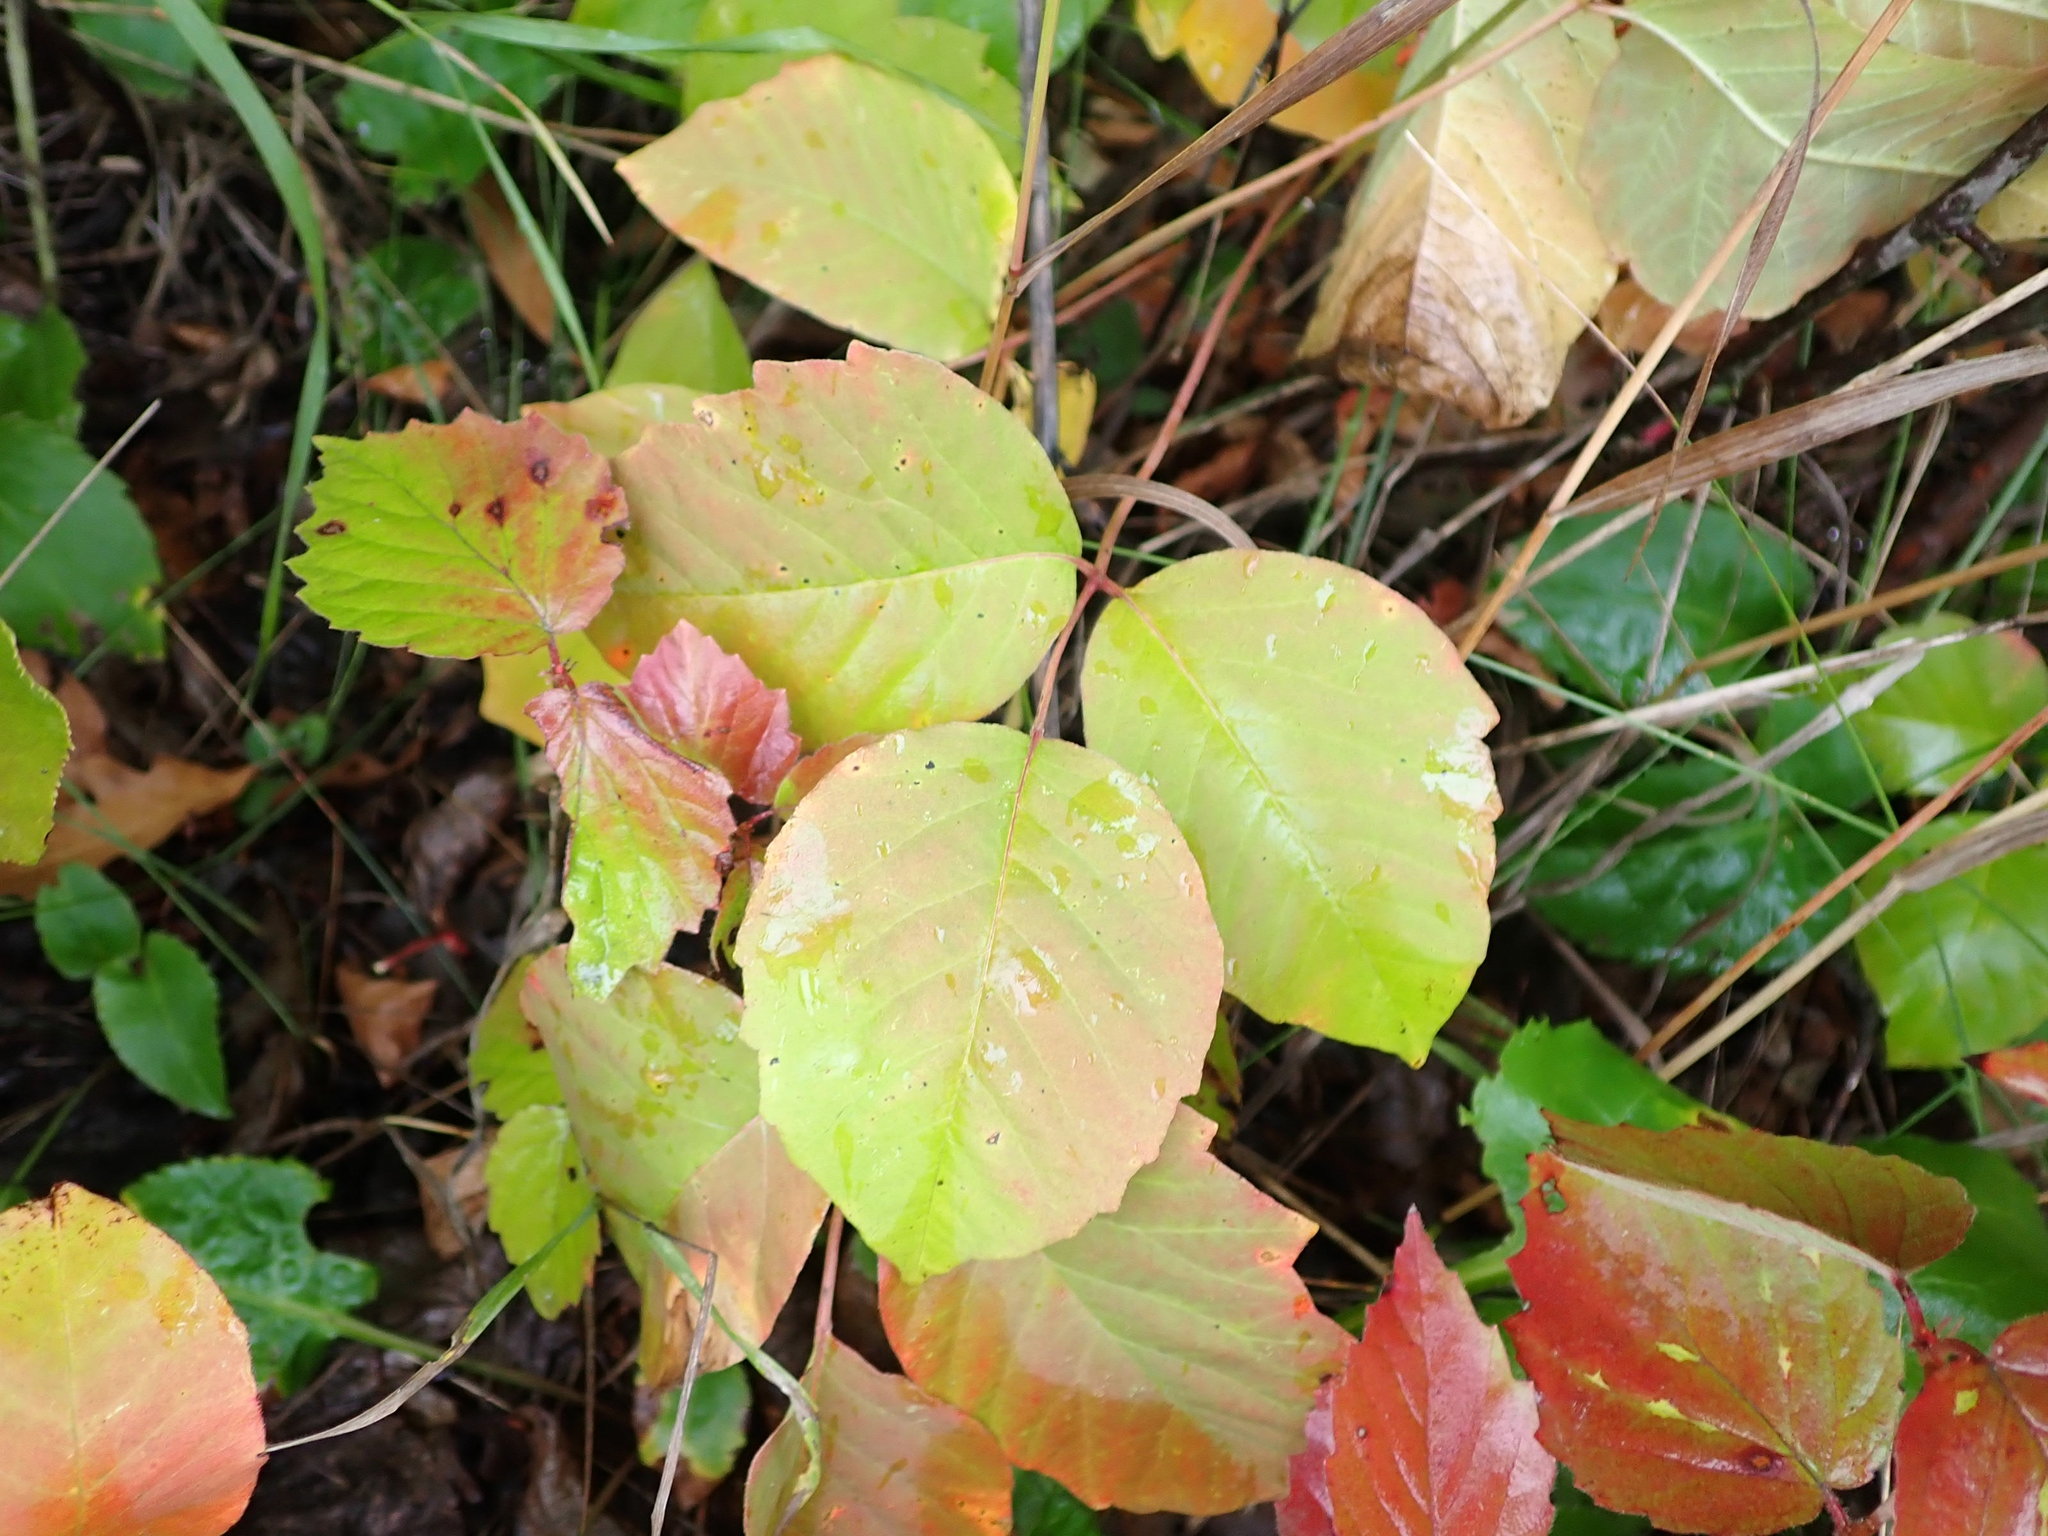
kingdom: Plantae
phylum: Tracheophyta
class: Magnoliopsida
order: Sapindales
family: Anacardiaceae
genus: Toxicodendron
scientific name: Toxicodendron rydbergii
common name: Rydberg's poison-ivy
